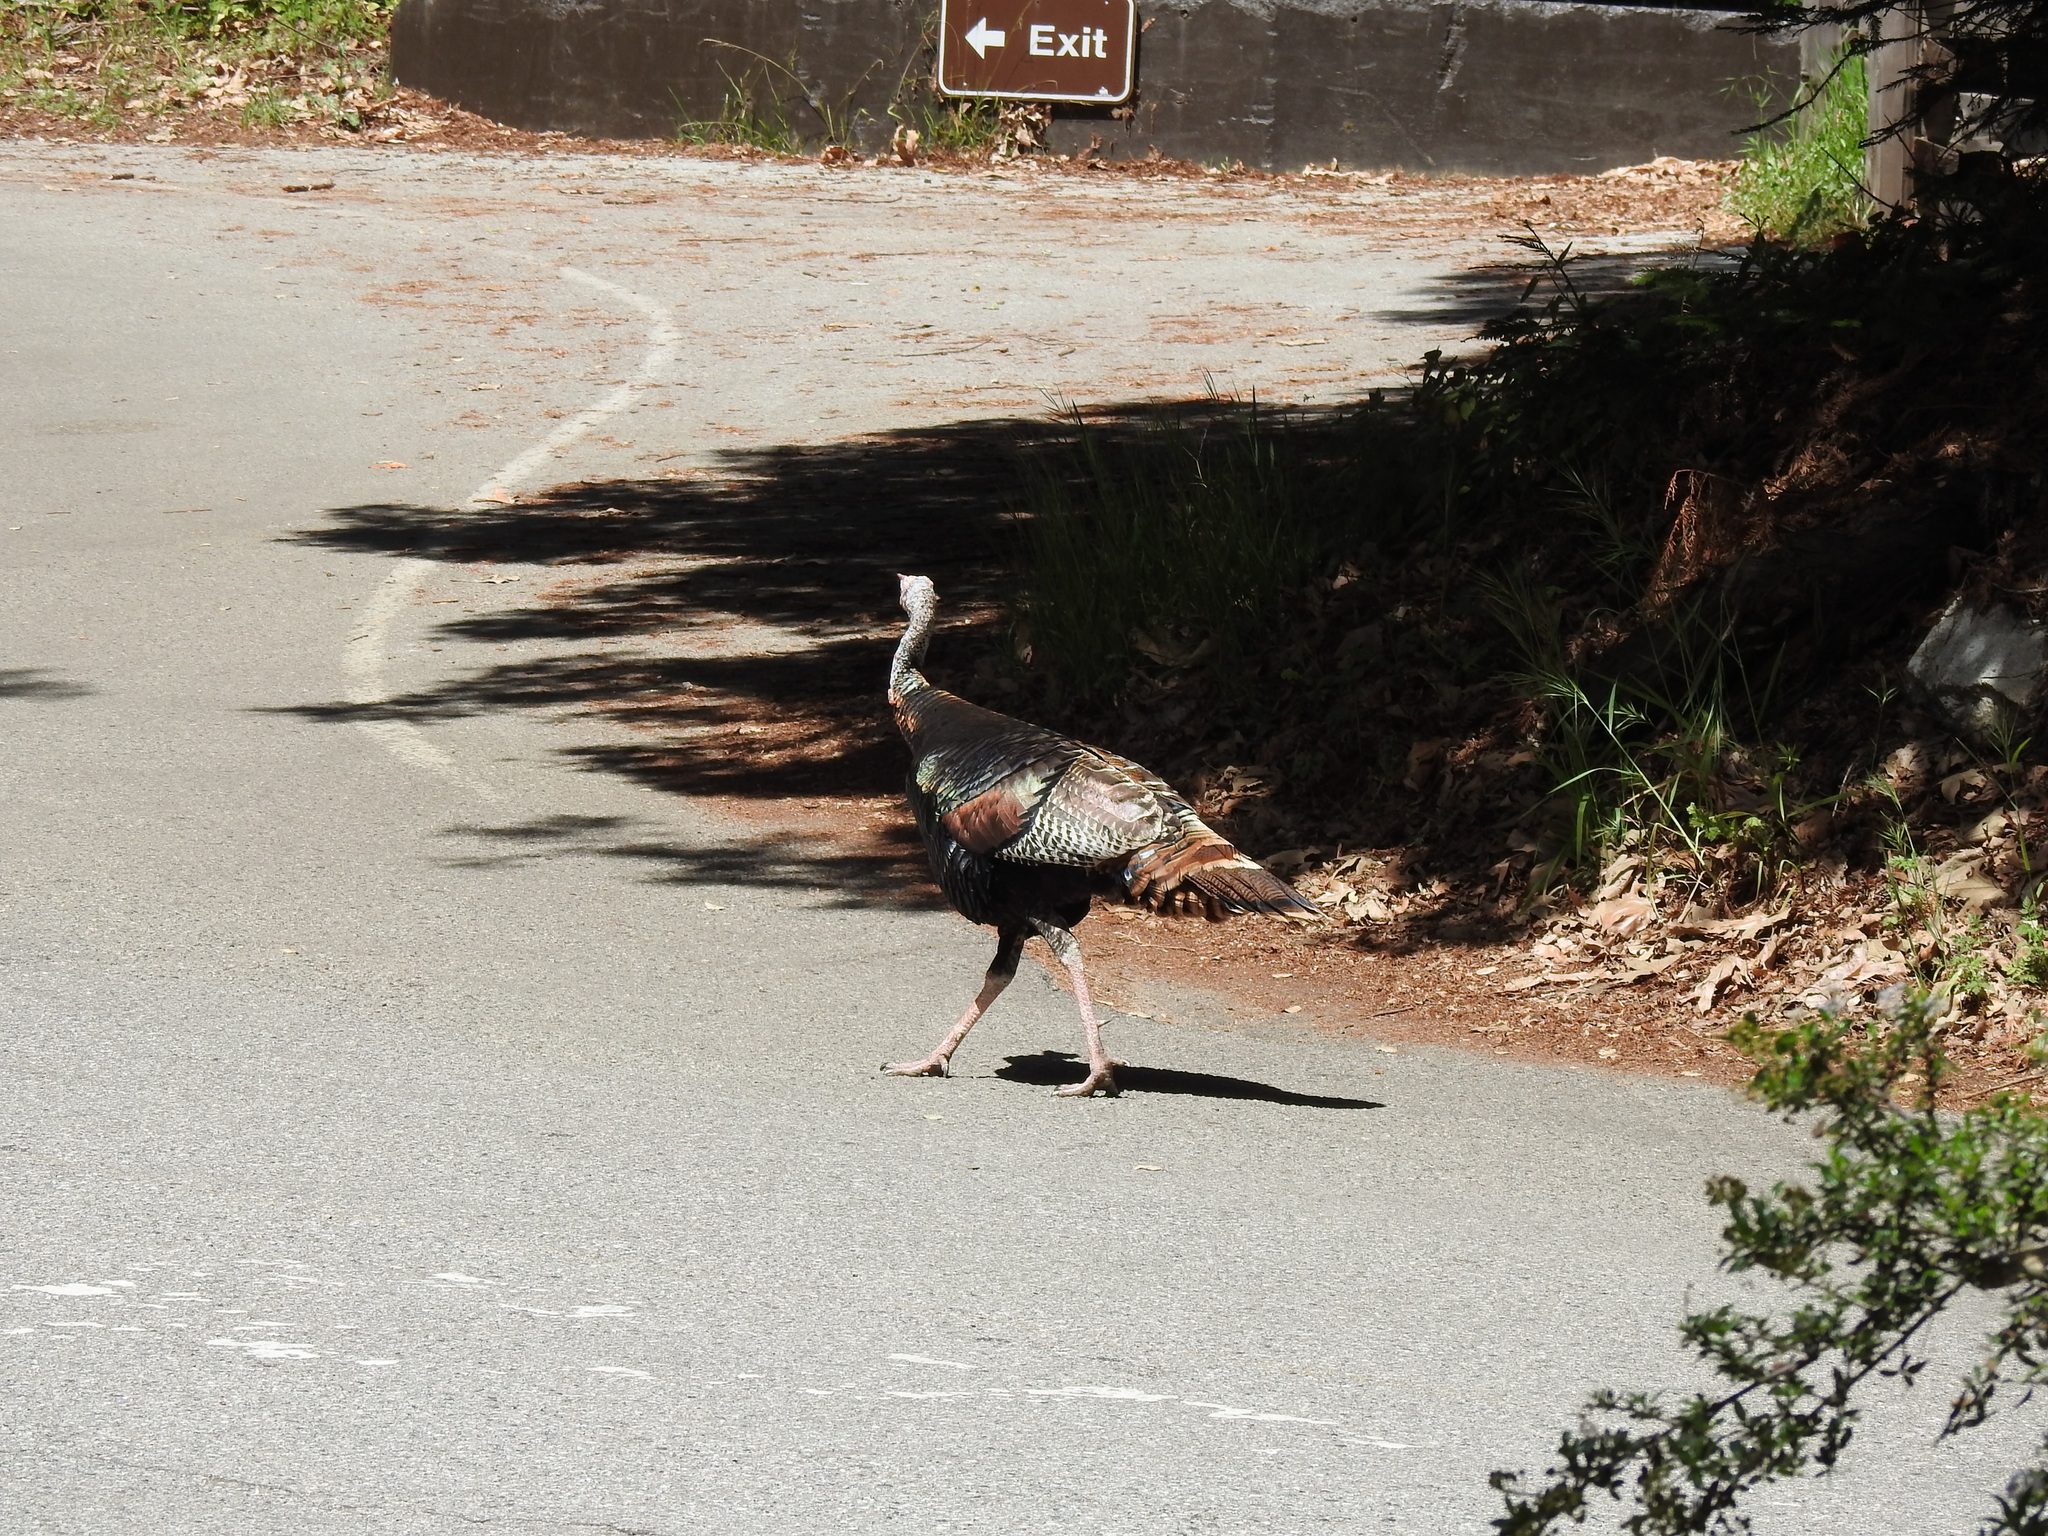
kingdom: Animalia
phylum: Chordata
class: Aves
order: Galliformes
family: Phasianidae
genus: Meleagris
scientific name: Meleagris gallopavo
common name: Wild turkey
